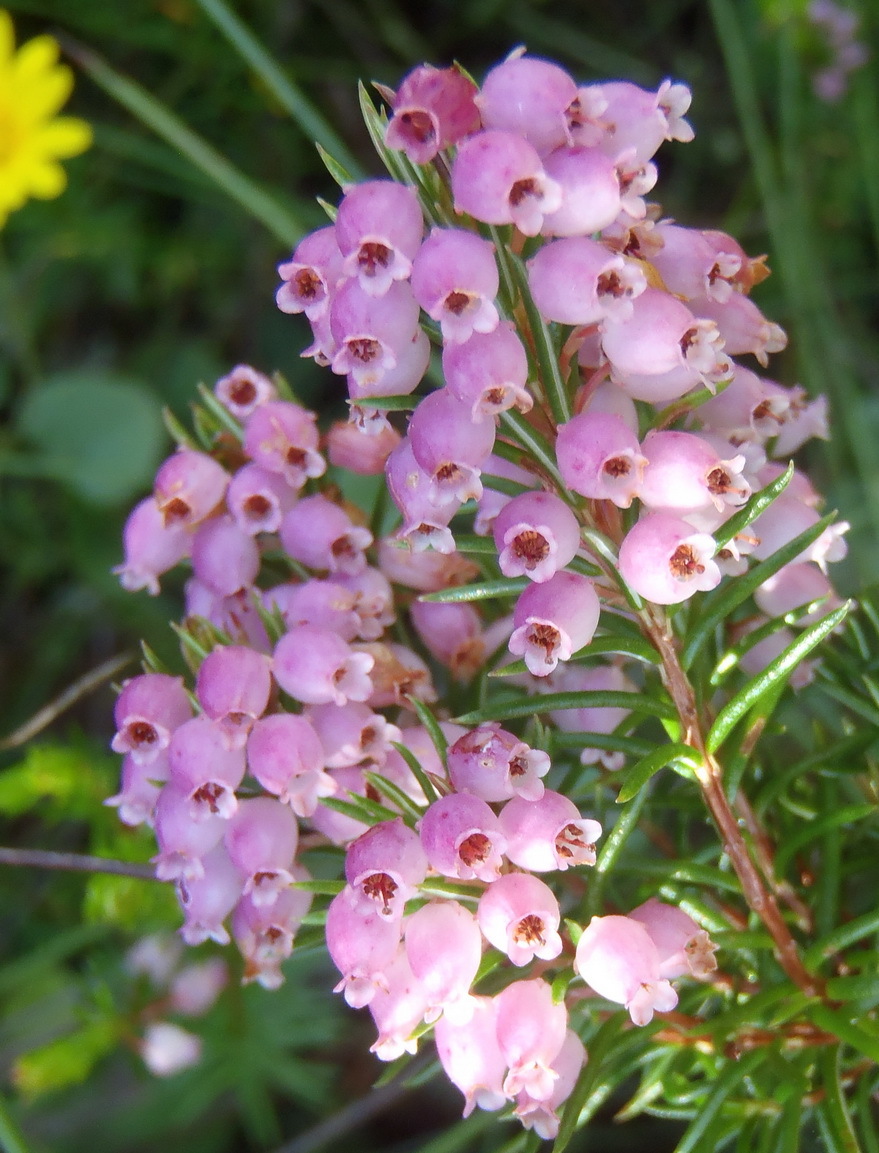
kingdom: Plantae
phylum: Tracheophyta
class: Magnoliopsida
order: Ericales
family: Ericaceae
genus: Erica
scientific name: Erica tenella
